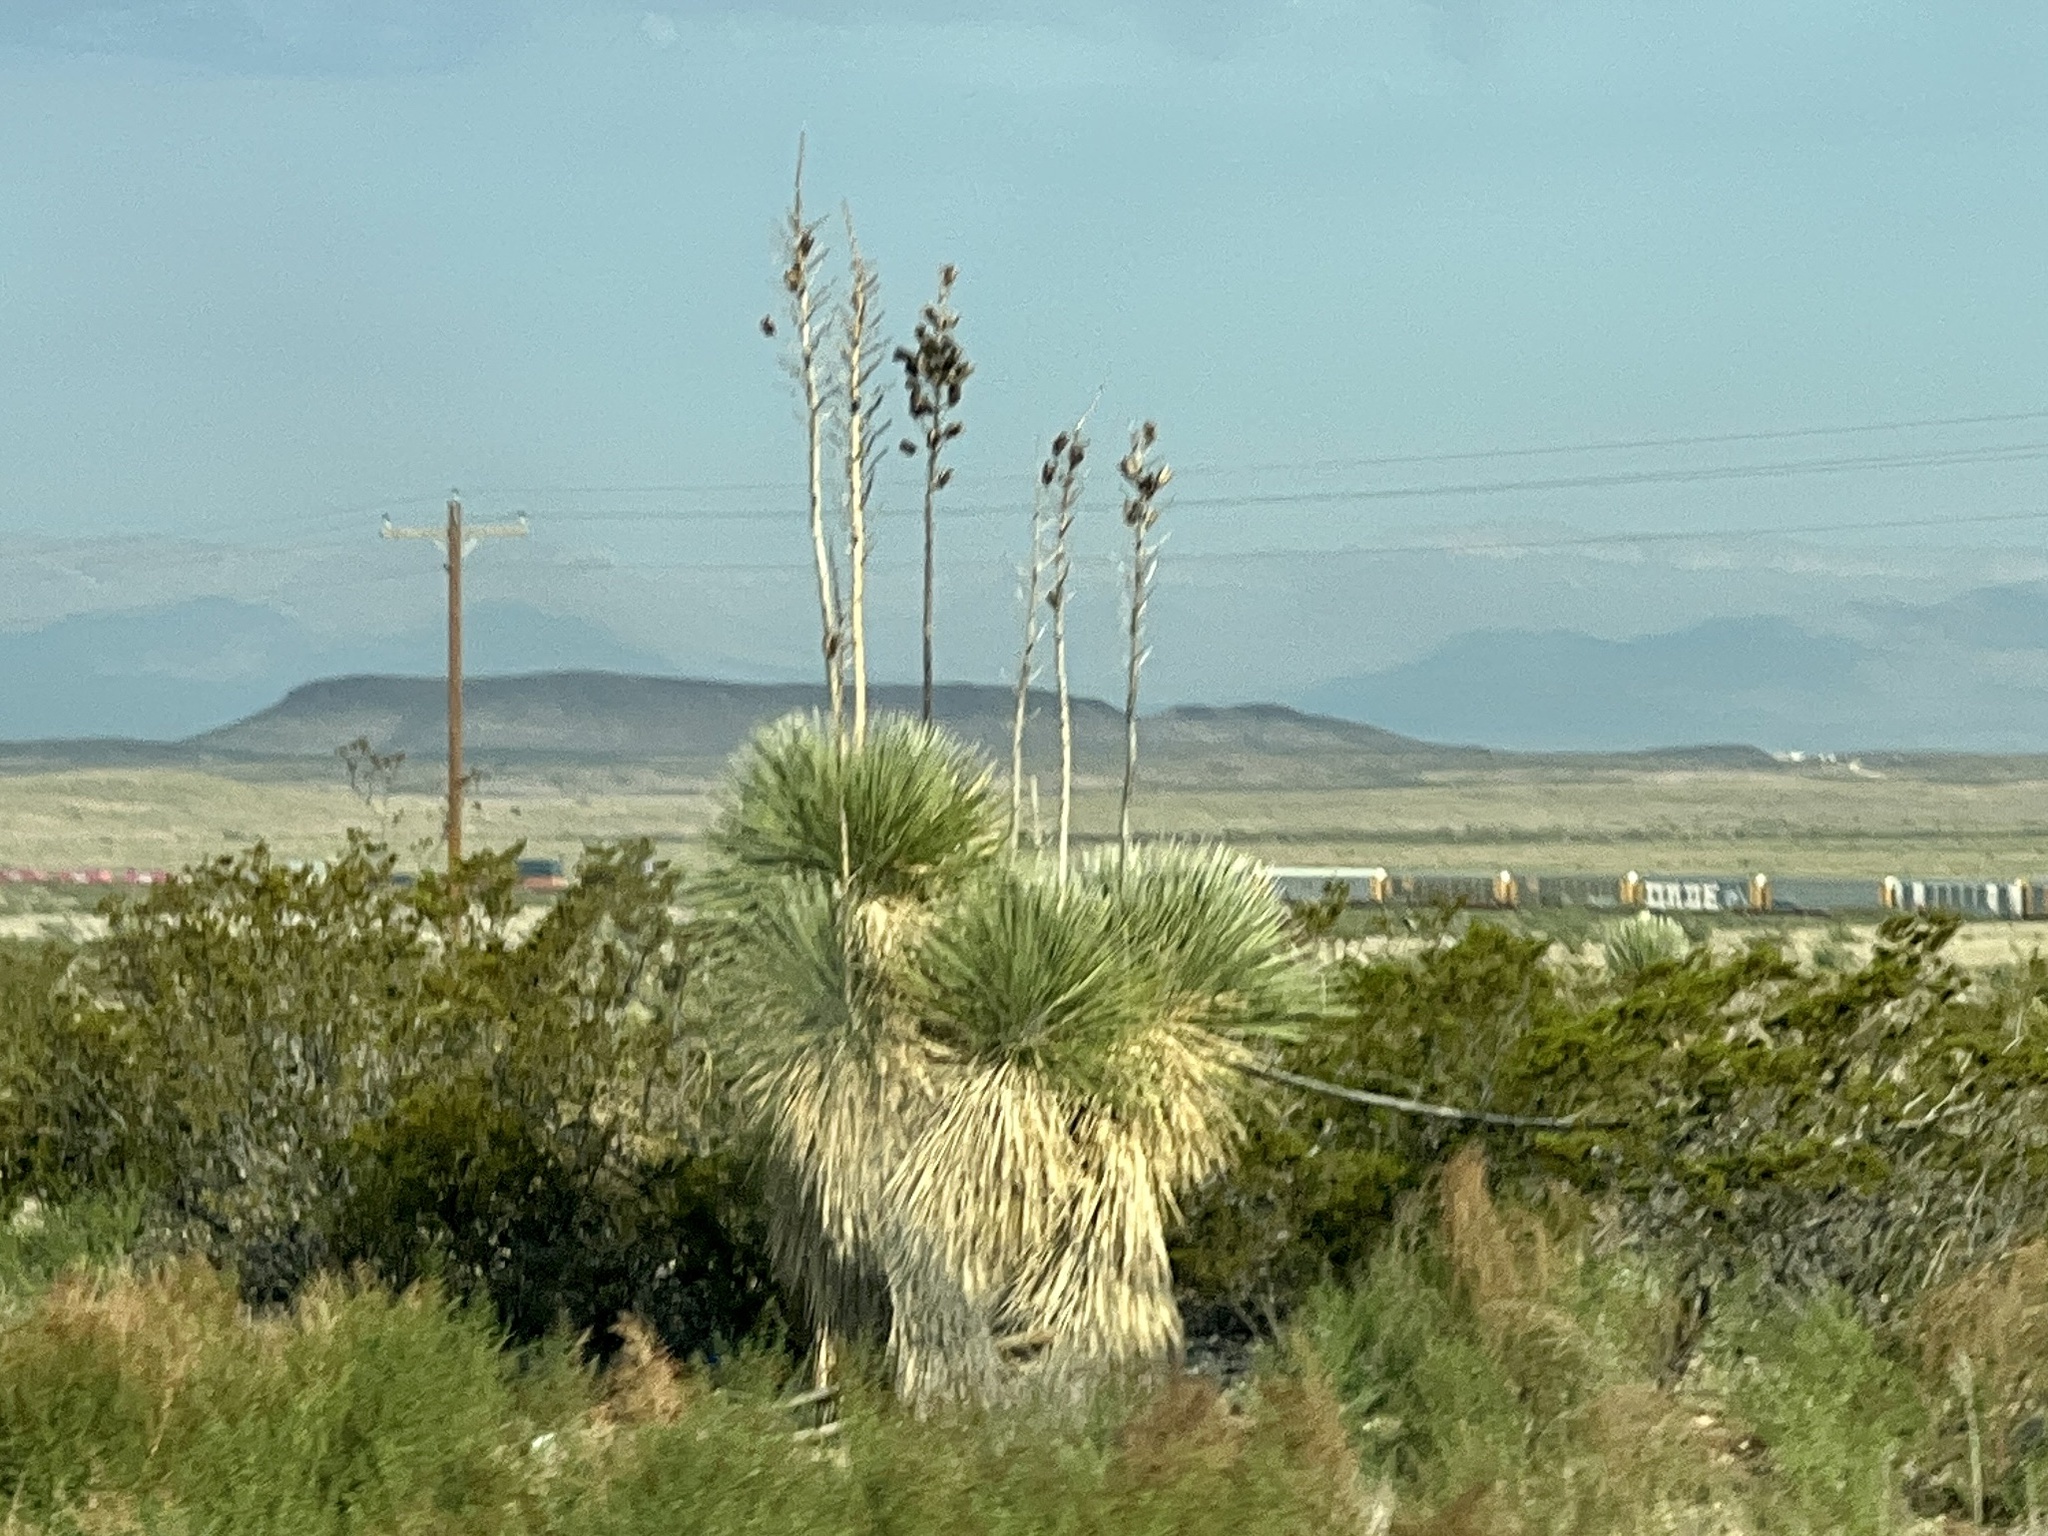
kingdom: Plantae
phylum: Tracheophyta
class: Liliopsida
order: Asparagales
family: Asparagaceae
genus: Yucca
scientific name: Yucca elata
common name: Palmella
